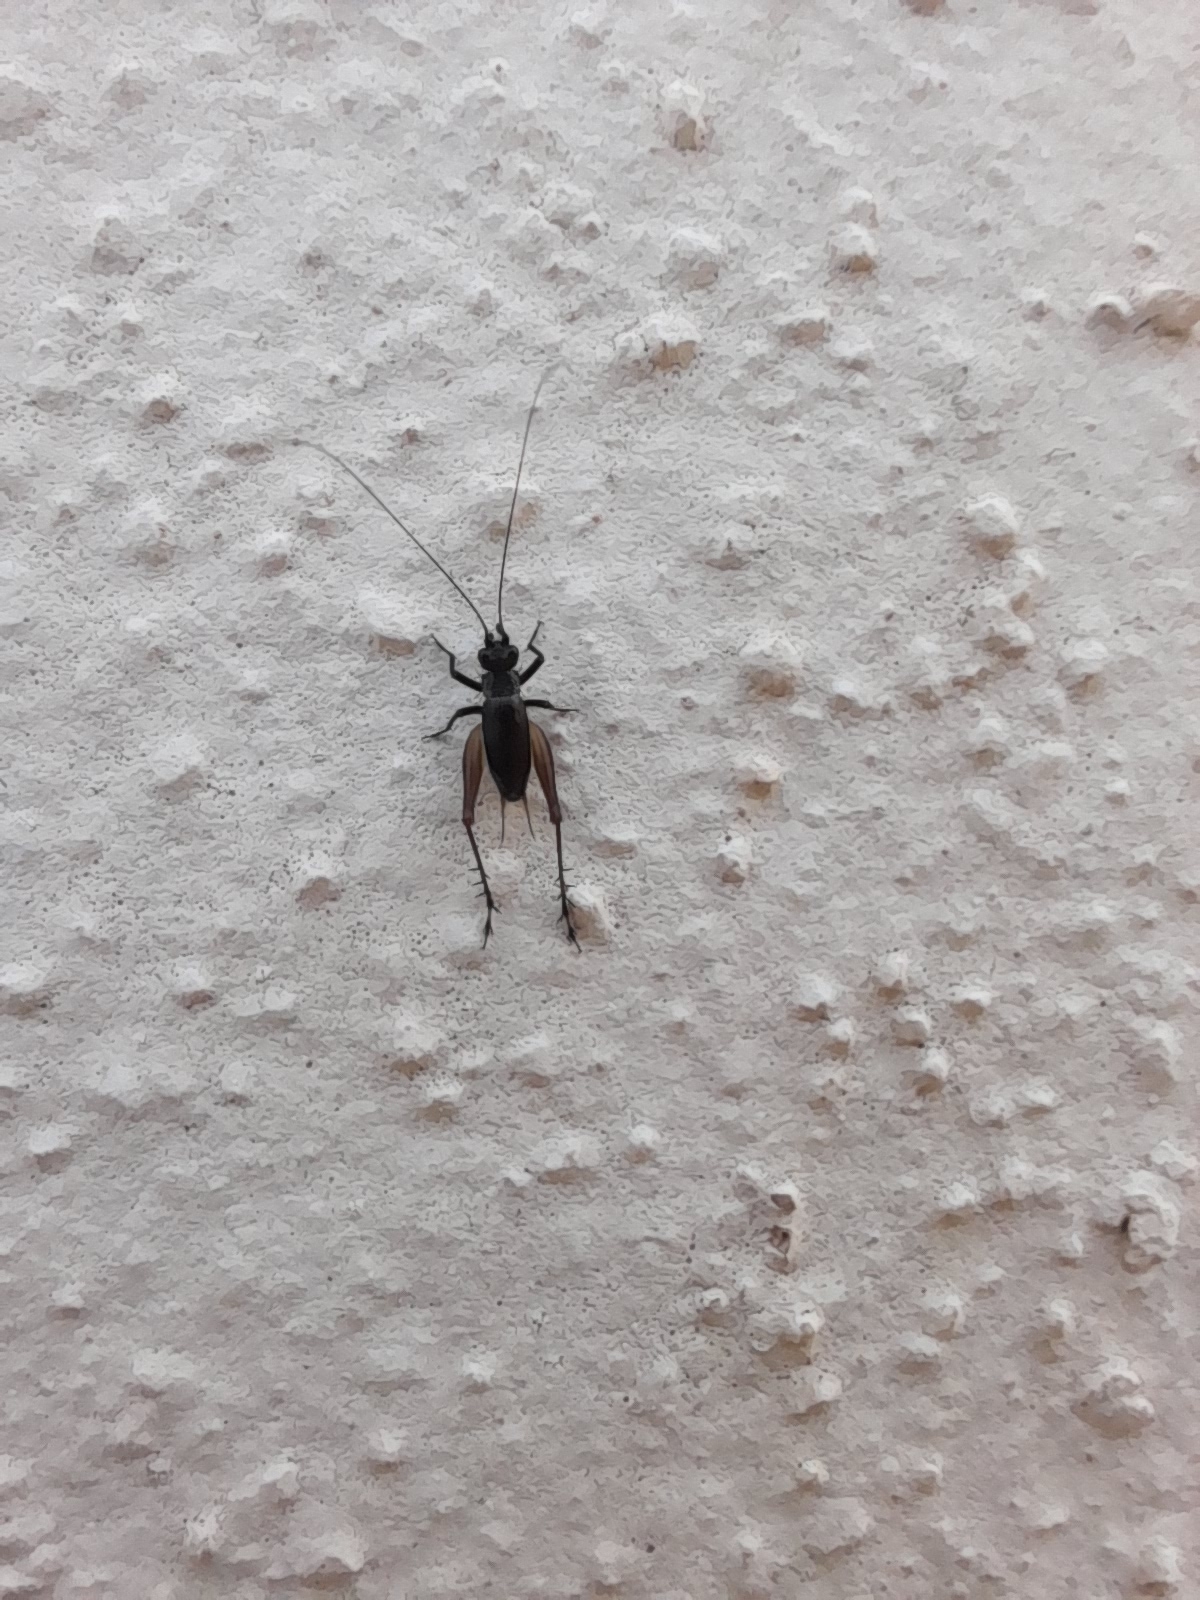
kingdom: Animalia
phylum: Arthropoda
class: Insecta
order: Orthoptera
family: Trigonidiidae
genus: Trigonidium
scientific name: Trigonidium cicindeloides
